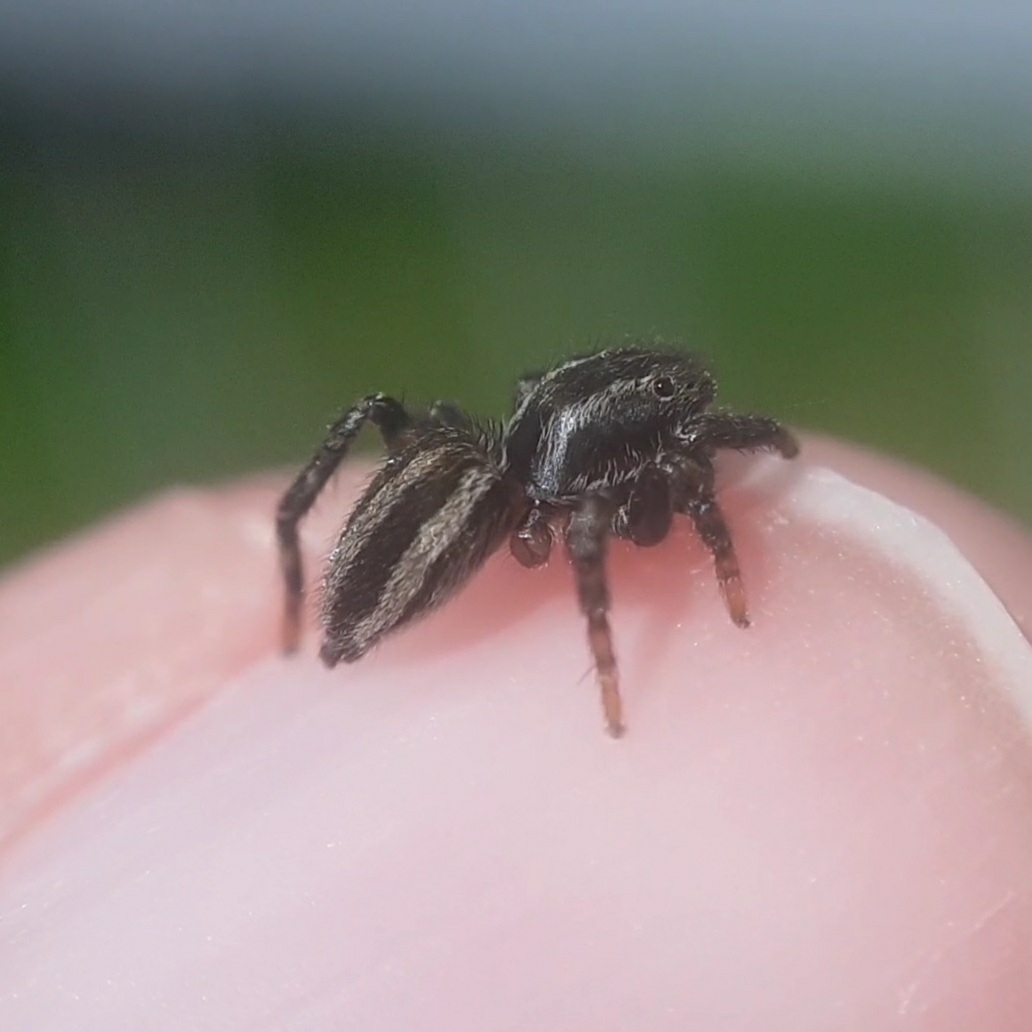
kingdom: Animalia
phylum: Arthropoda
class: Arachnida
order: Araneae
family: Salticidae
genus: Phlegra
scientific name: Phlegra fasciata
